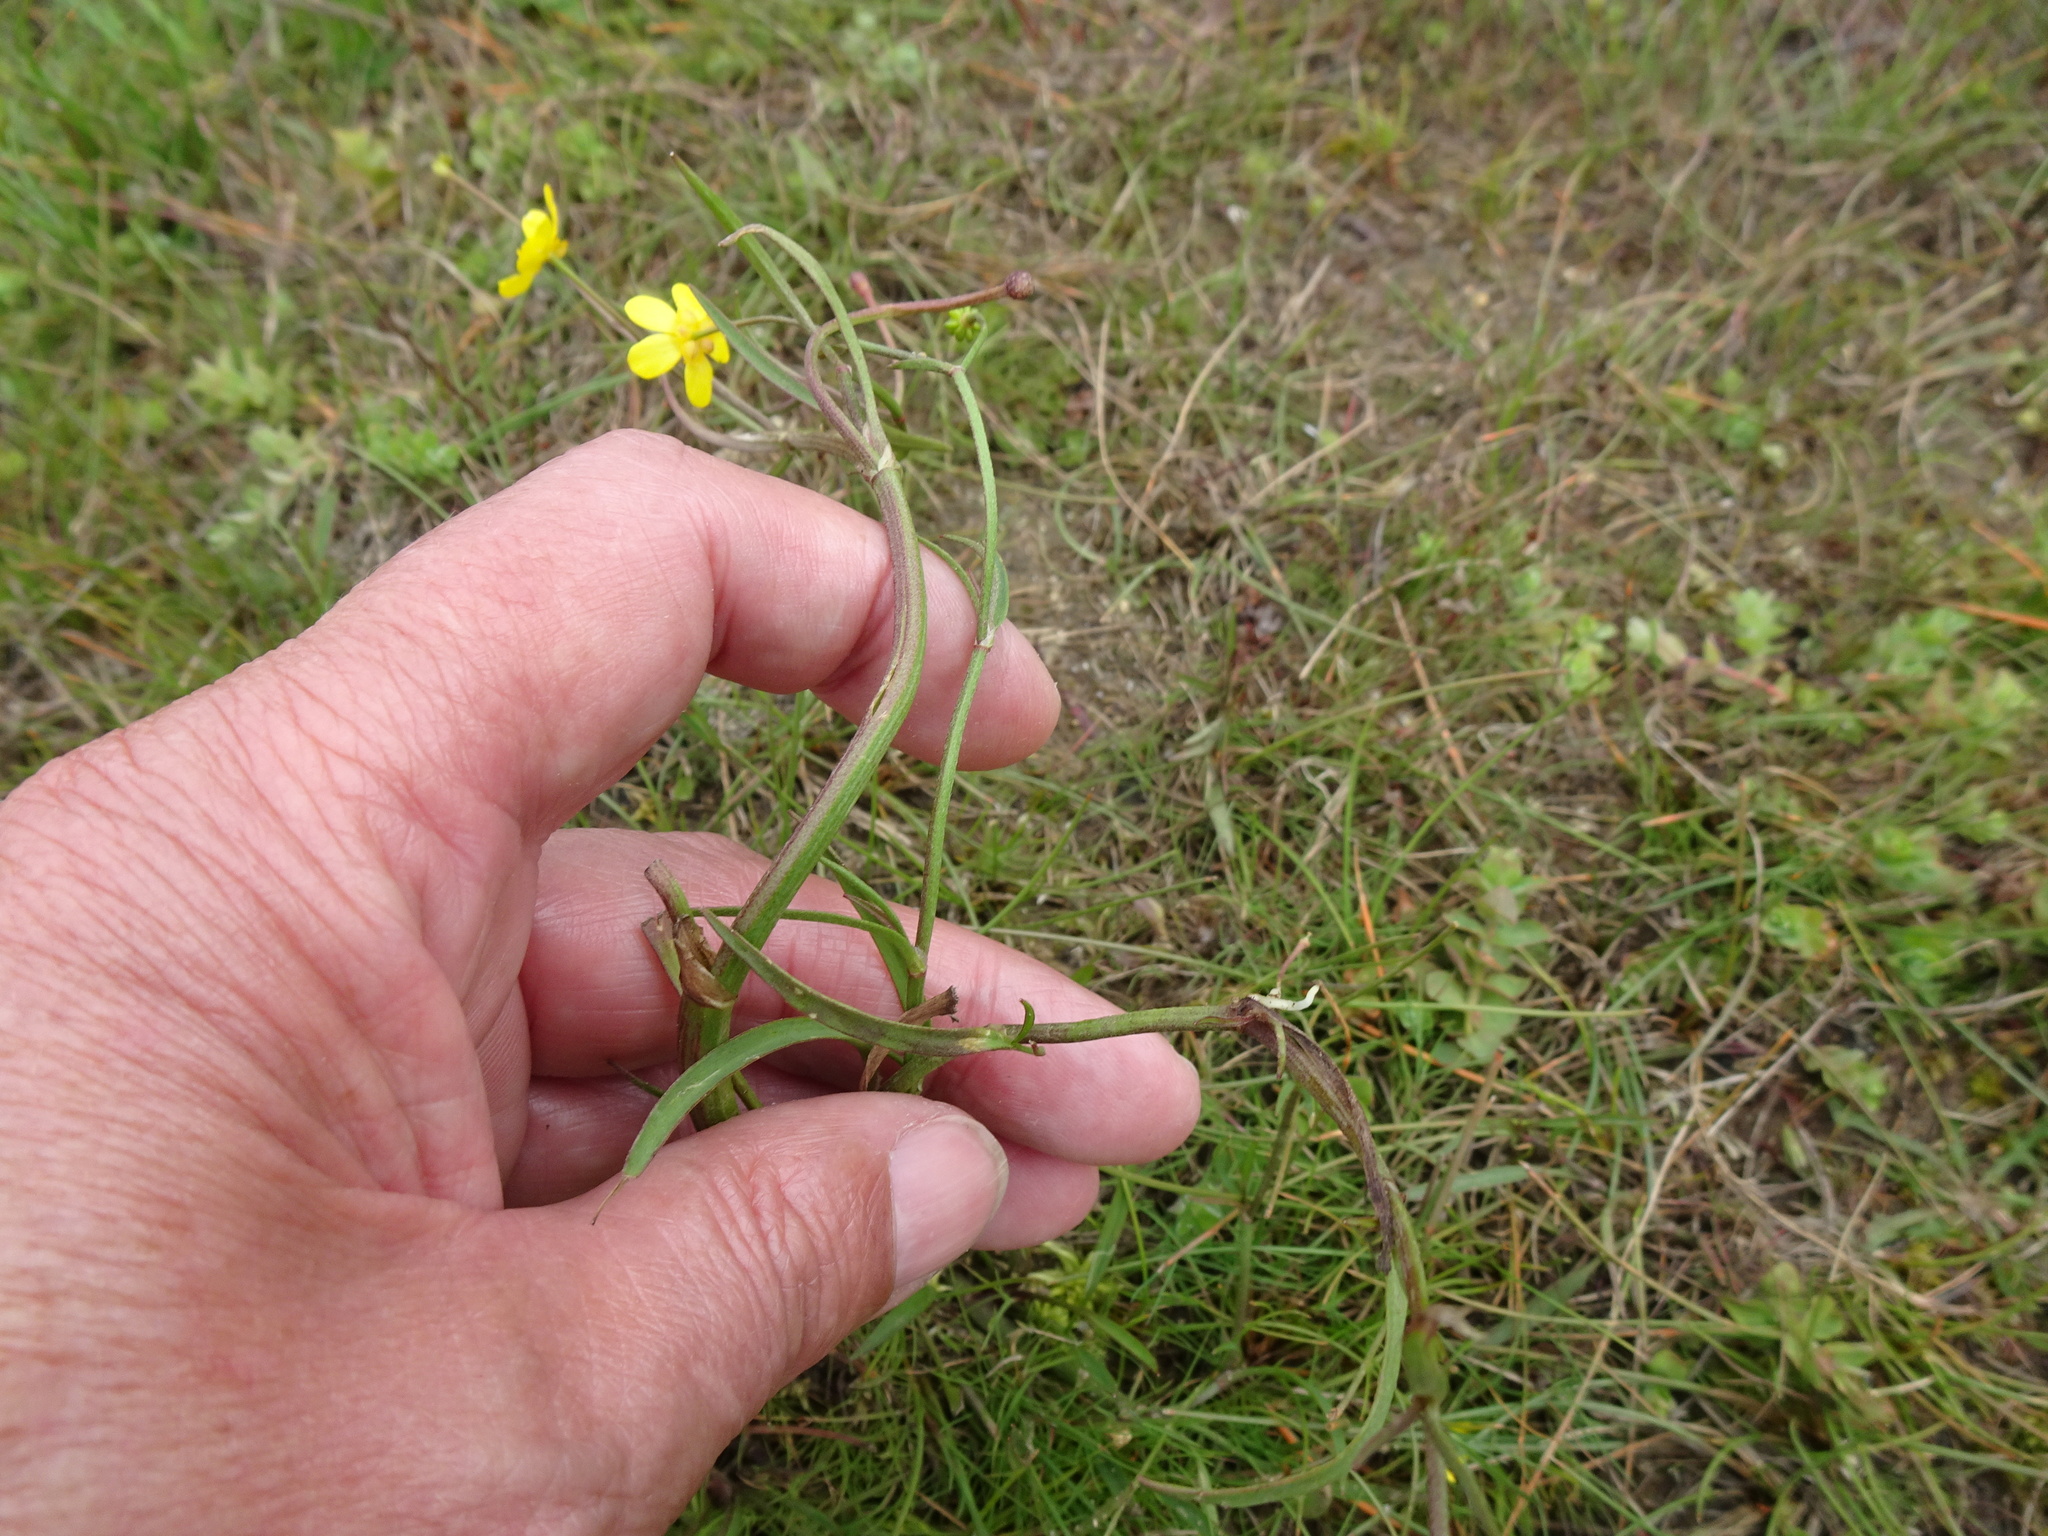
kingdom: Plantae
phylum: Tracheophyta
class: Magnoliopsida
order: Ranunculales
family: Ranunculaceae
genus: Ranunculus
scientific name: Ranunculus flammula
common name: Lesser spearwort
